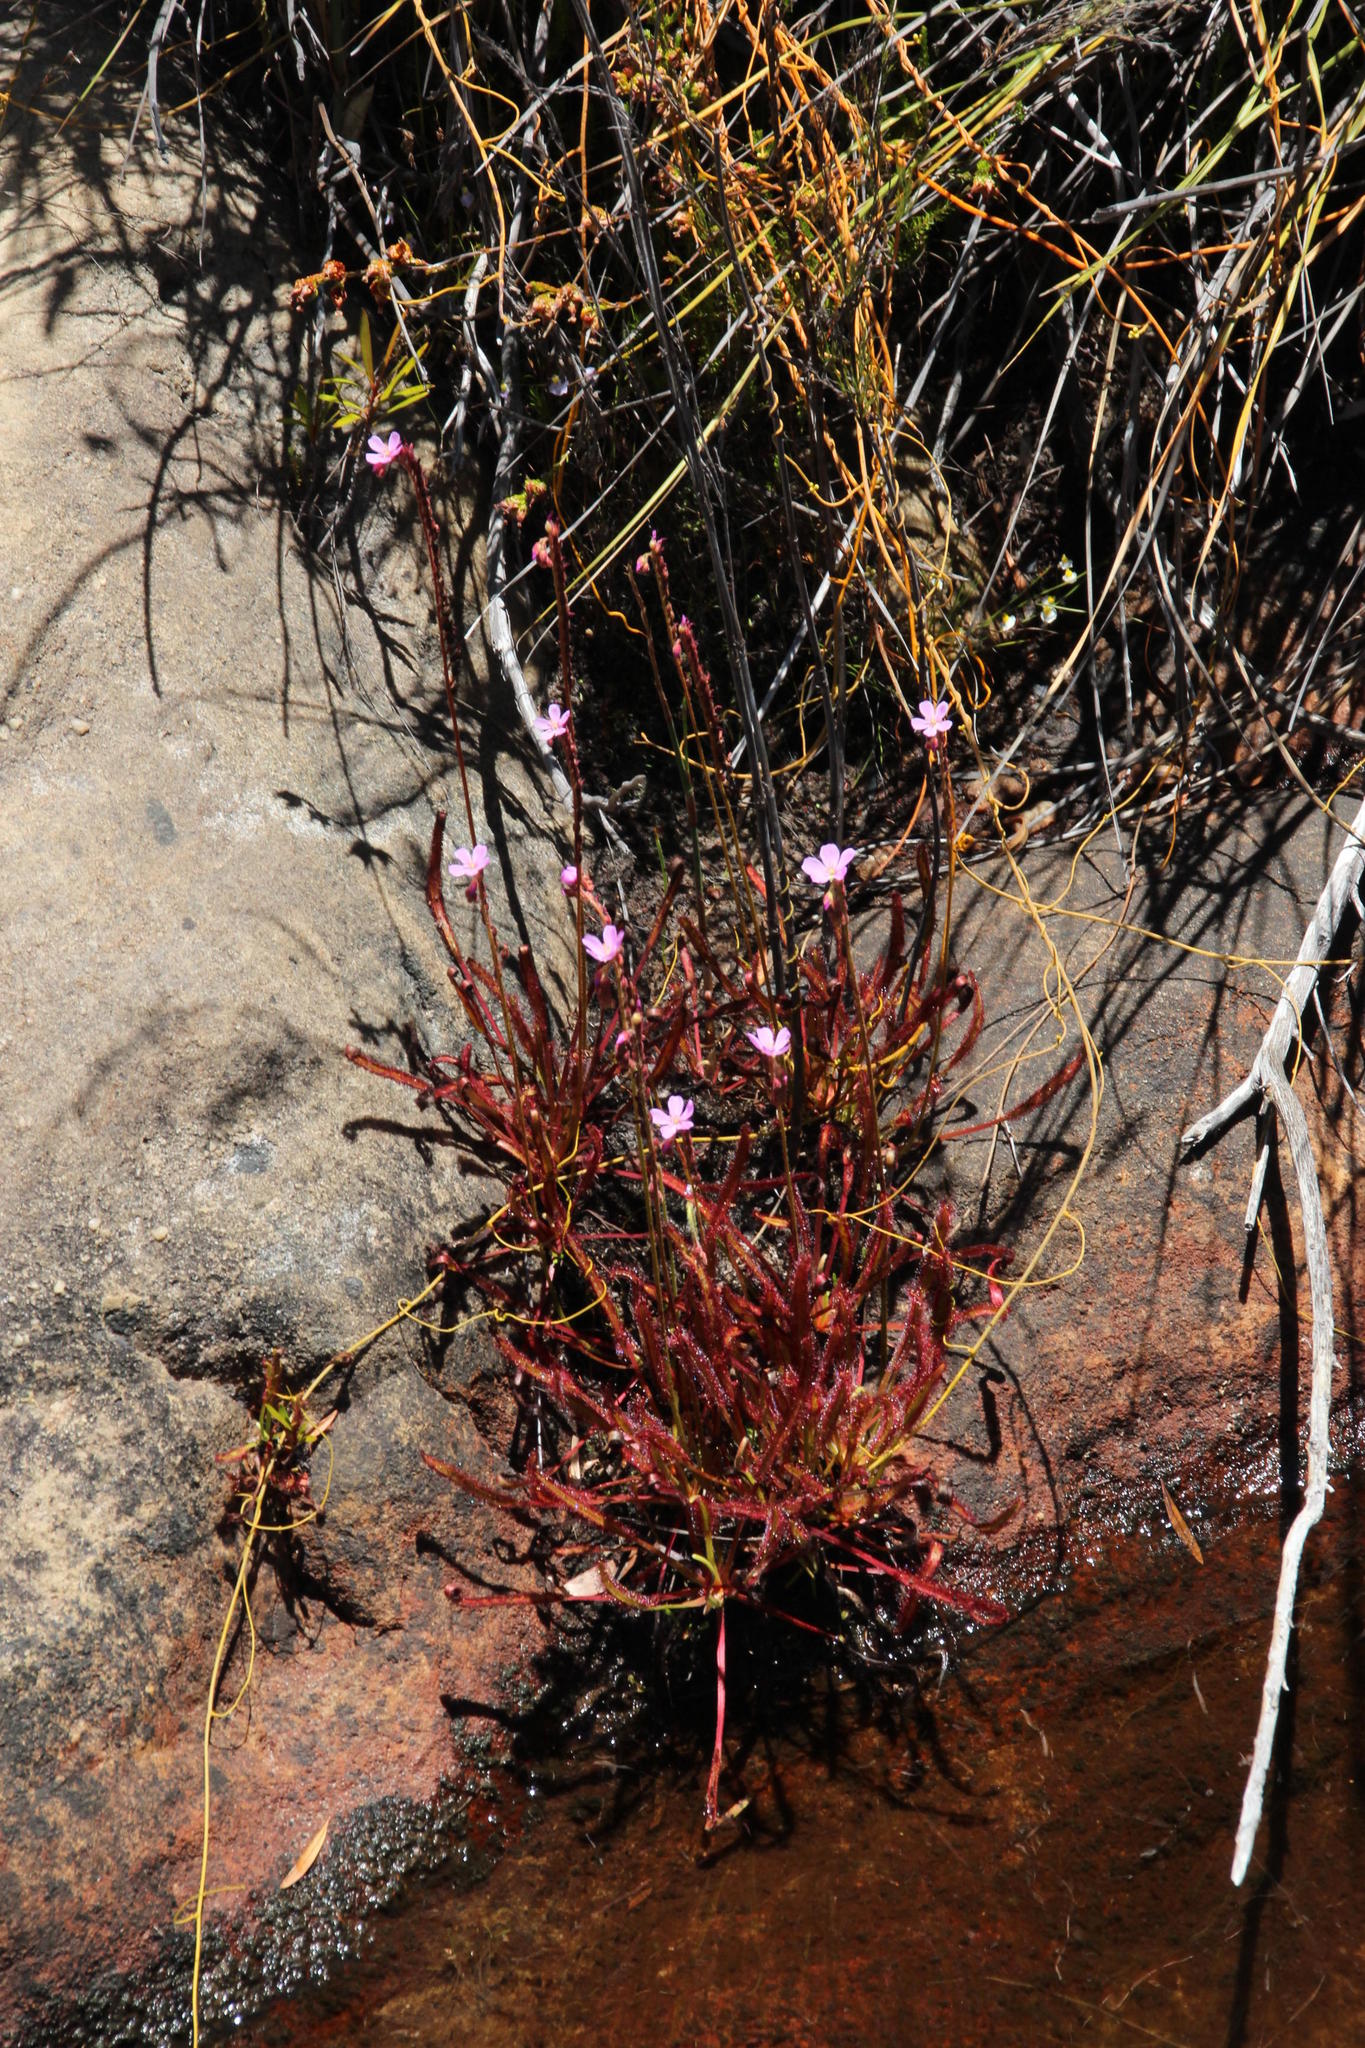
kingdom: Plantae
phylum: Tracheophyta
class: Magnoliopsida
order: Caryophyllales
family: Droseraceae
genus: Drosera
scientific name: Drosera capensis
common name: Cape sundew
